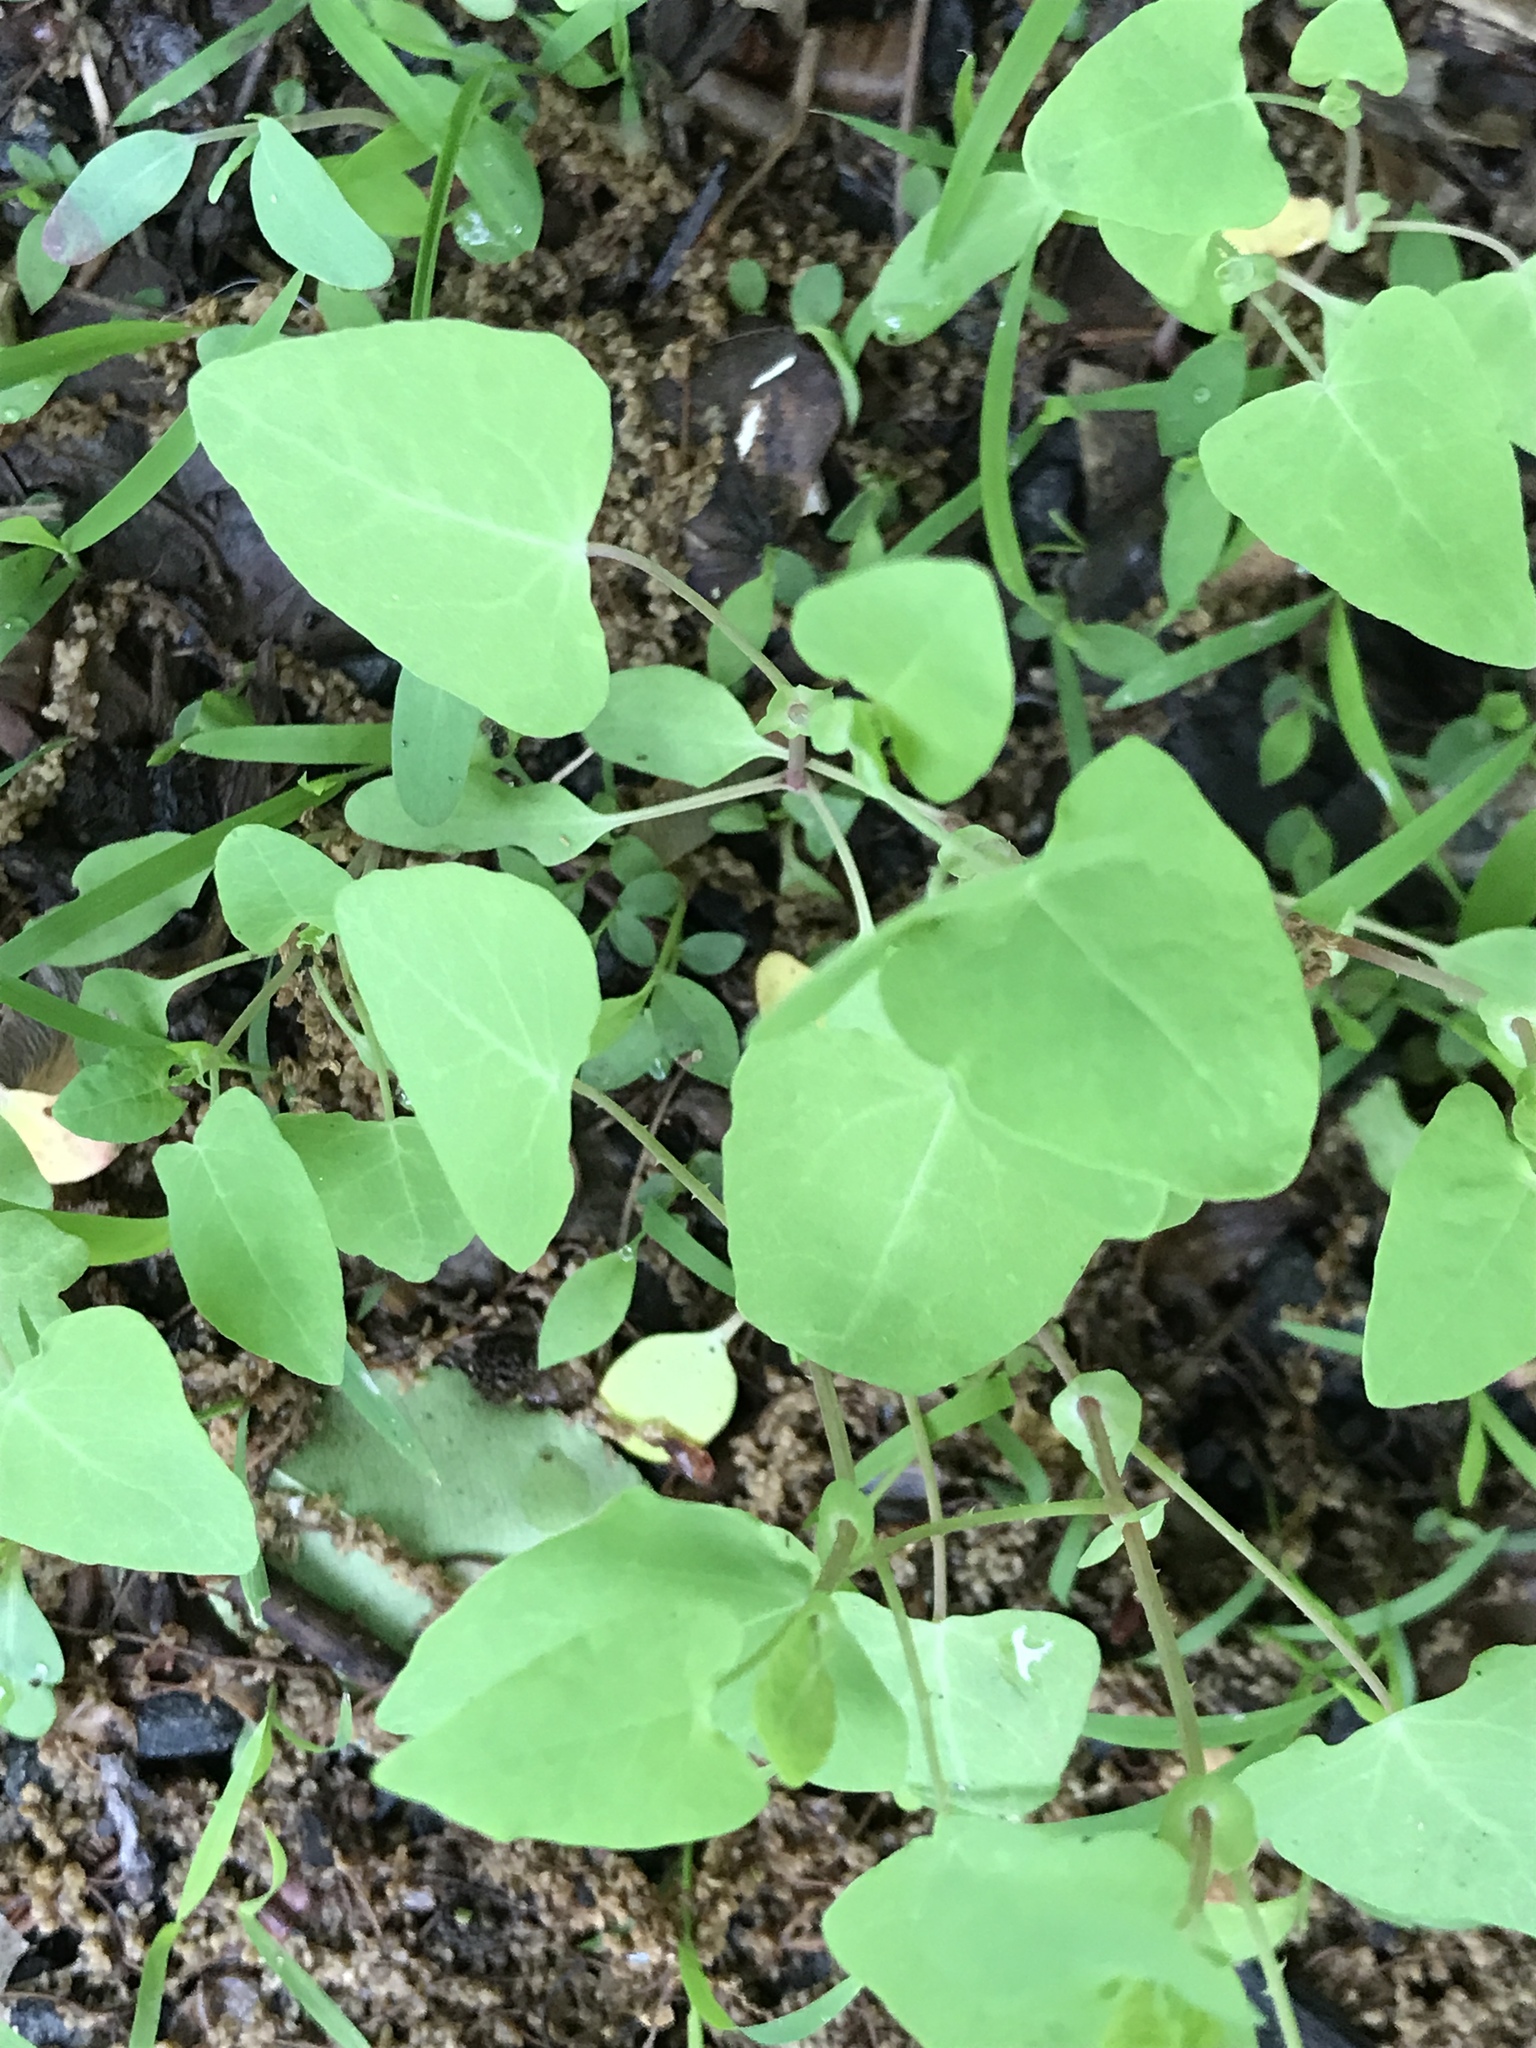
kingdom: Plantae
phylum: Tracheophyta
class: Magnoliopsida
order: Caryophyllales
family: Polygonaceae
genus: Persicaria
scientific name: Persicaria perfoliata
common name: Asiatic tearthumb
